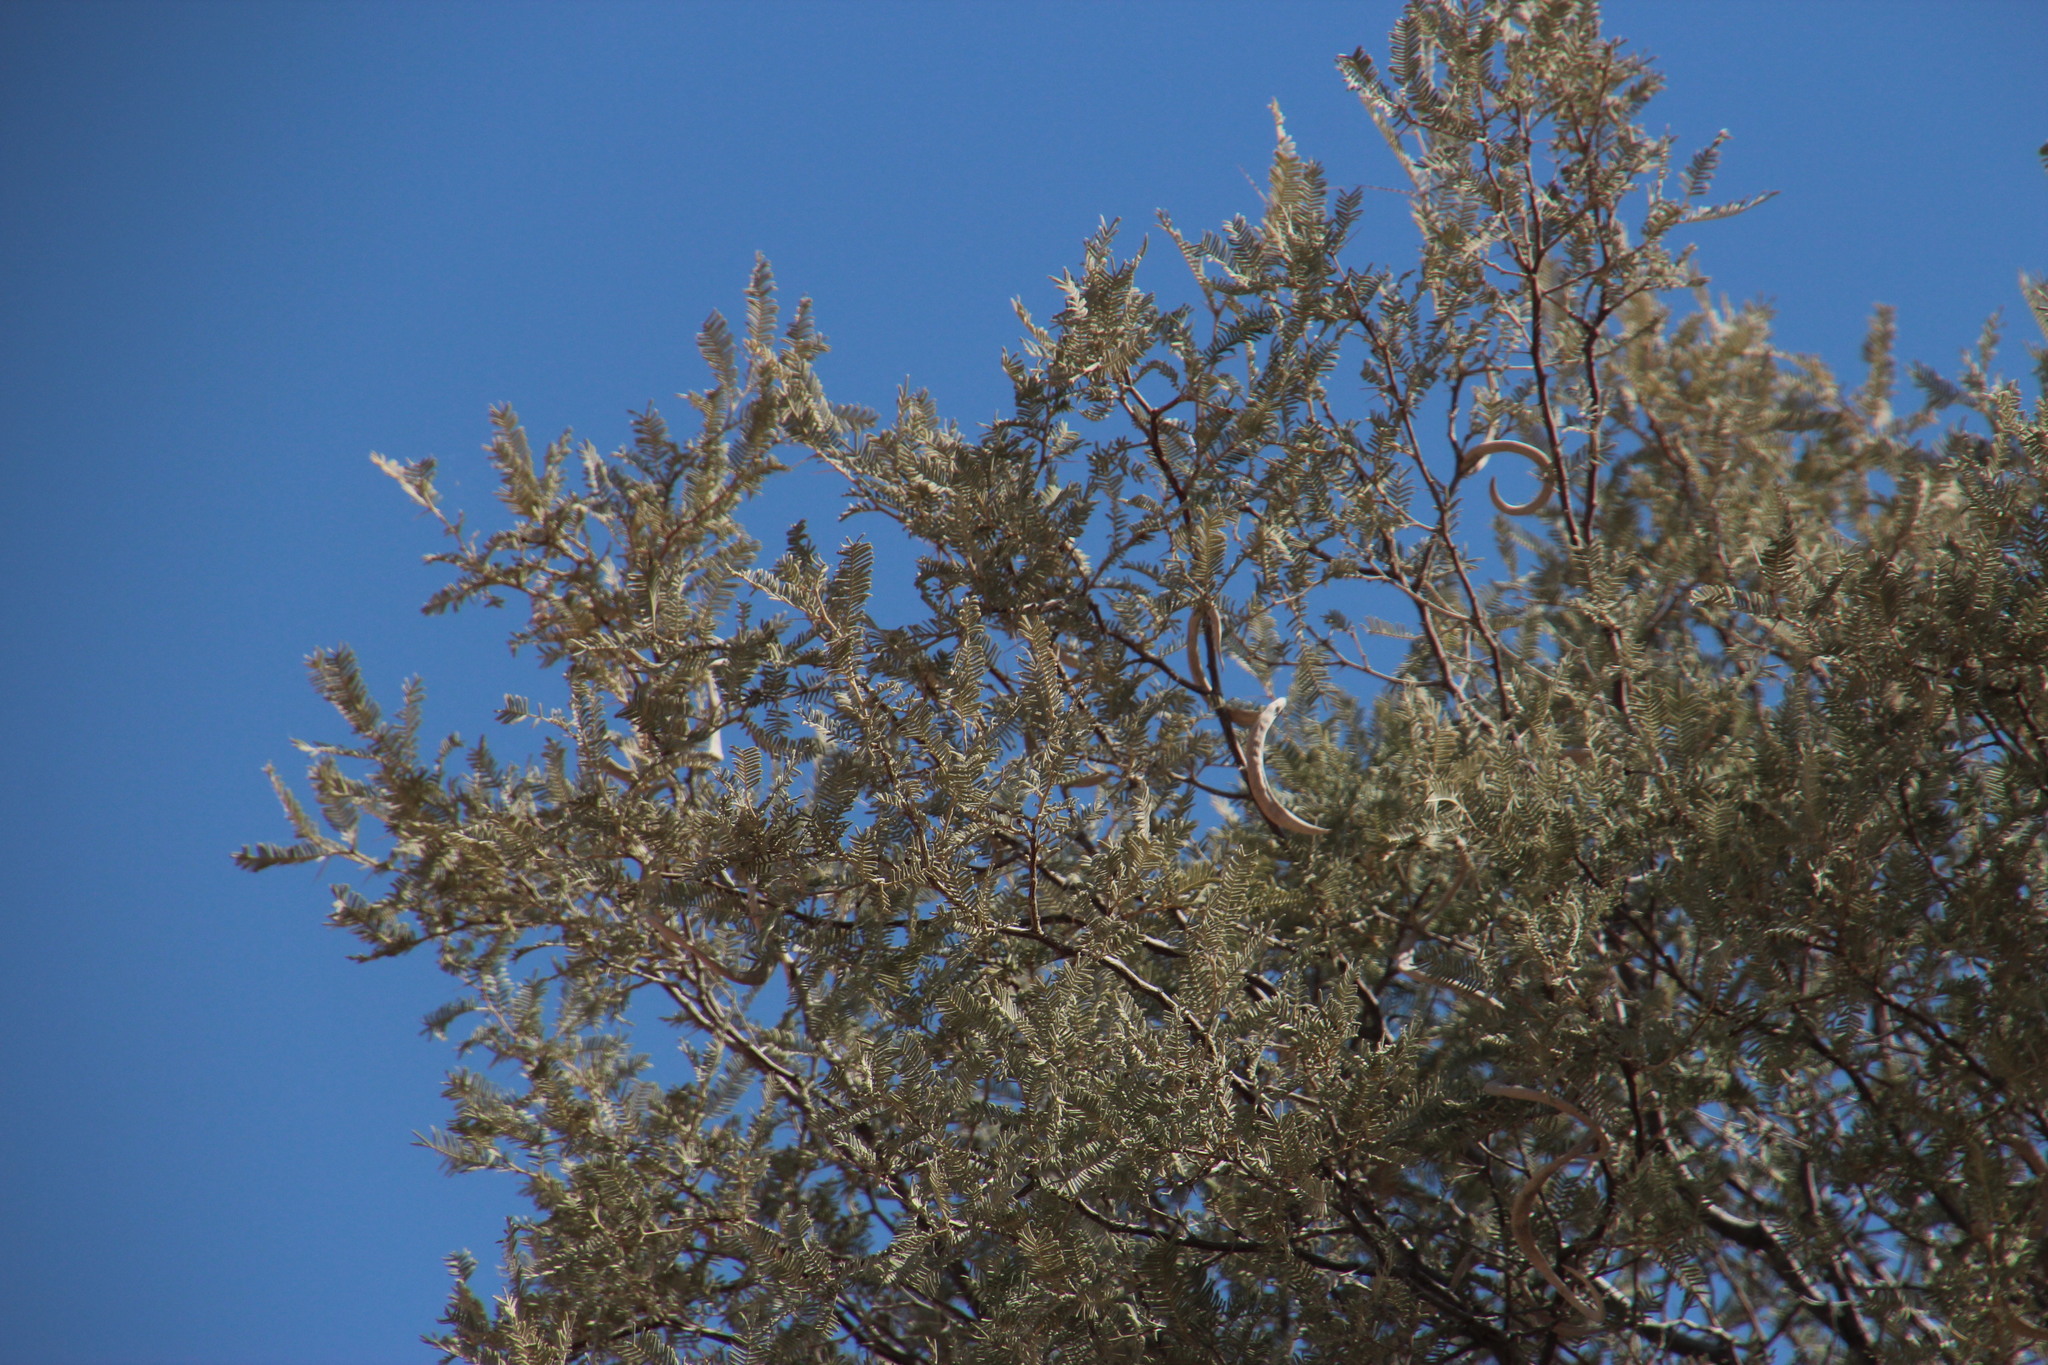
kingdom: Plantae
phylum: Tracheophyta
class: Magnoliopsida
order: Fabales
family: Fabaceae
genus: Vachellia
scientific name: Vachellia haematoxylon
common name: Grey camel thorn
